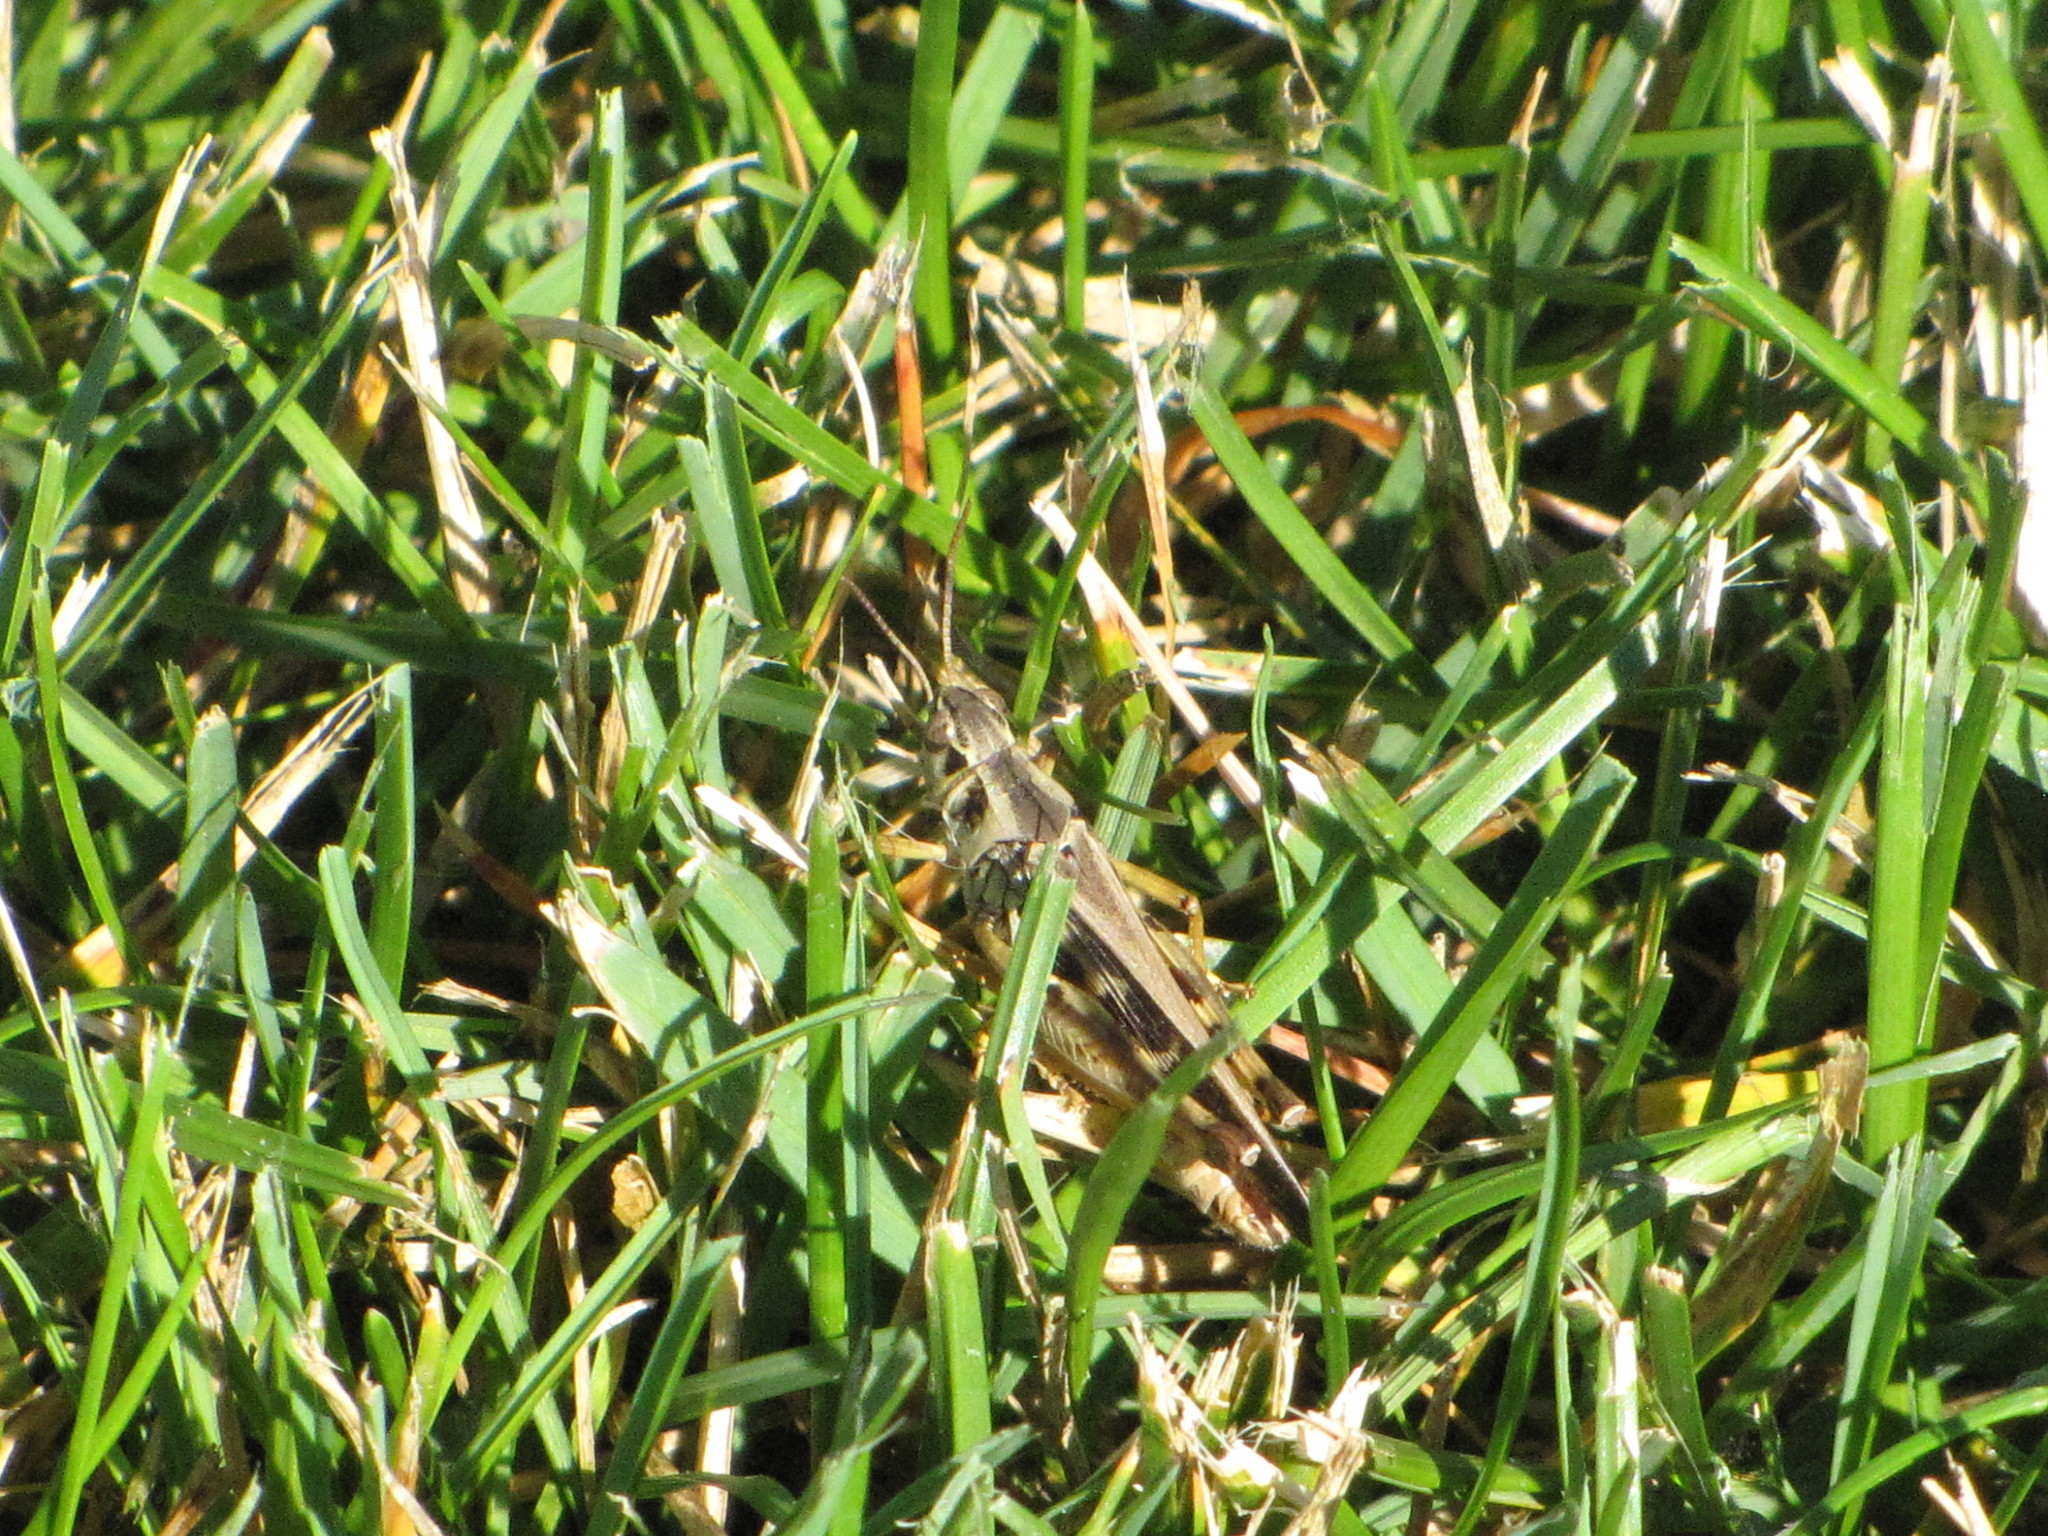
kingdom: Animalia
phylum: Arthropoda
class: Insecta
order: Orthoptera
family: Acrididae
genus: Camnula
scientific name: Camnula pellucida
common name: Clear-winged grasshopper
